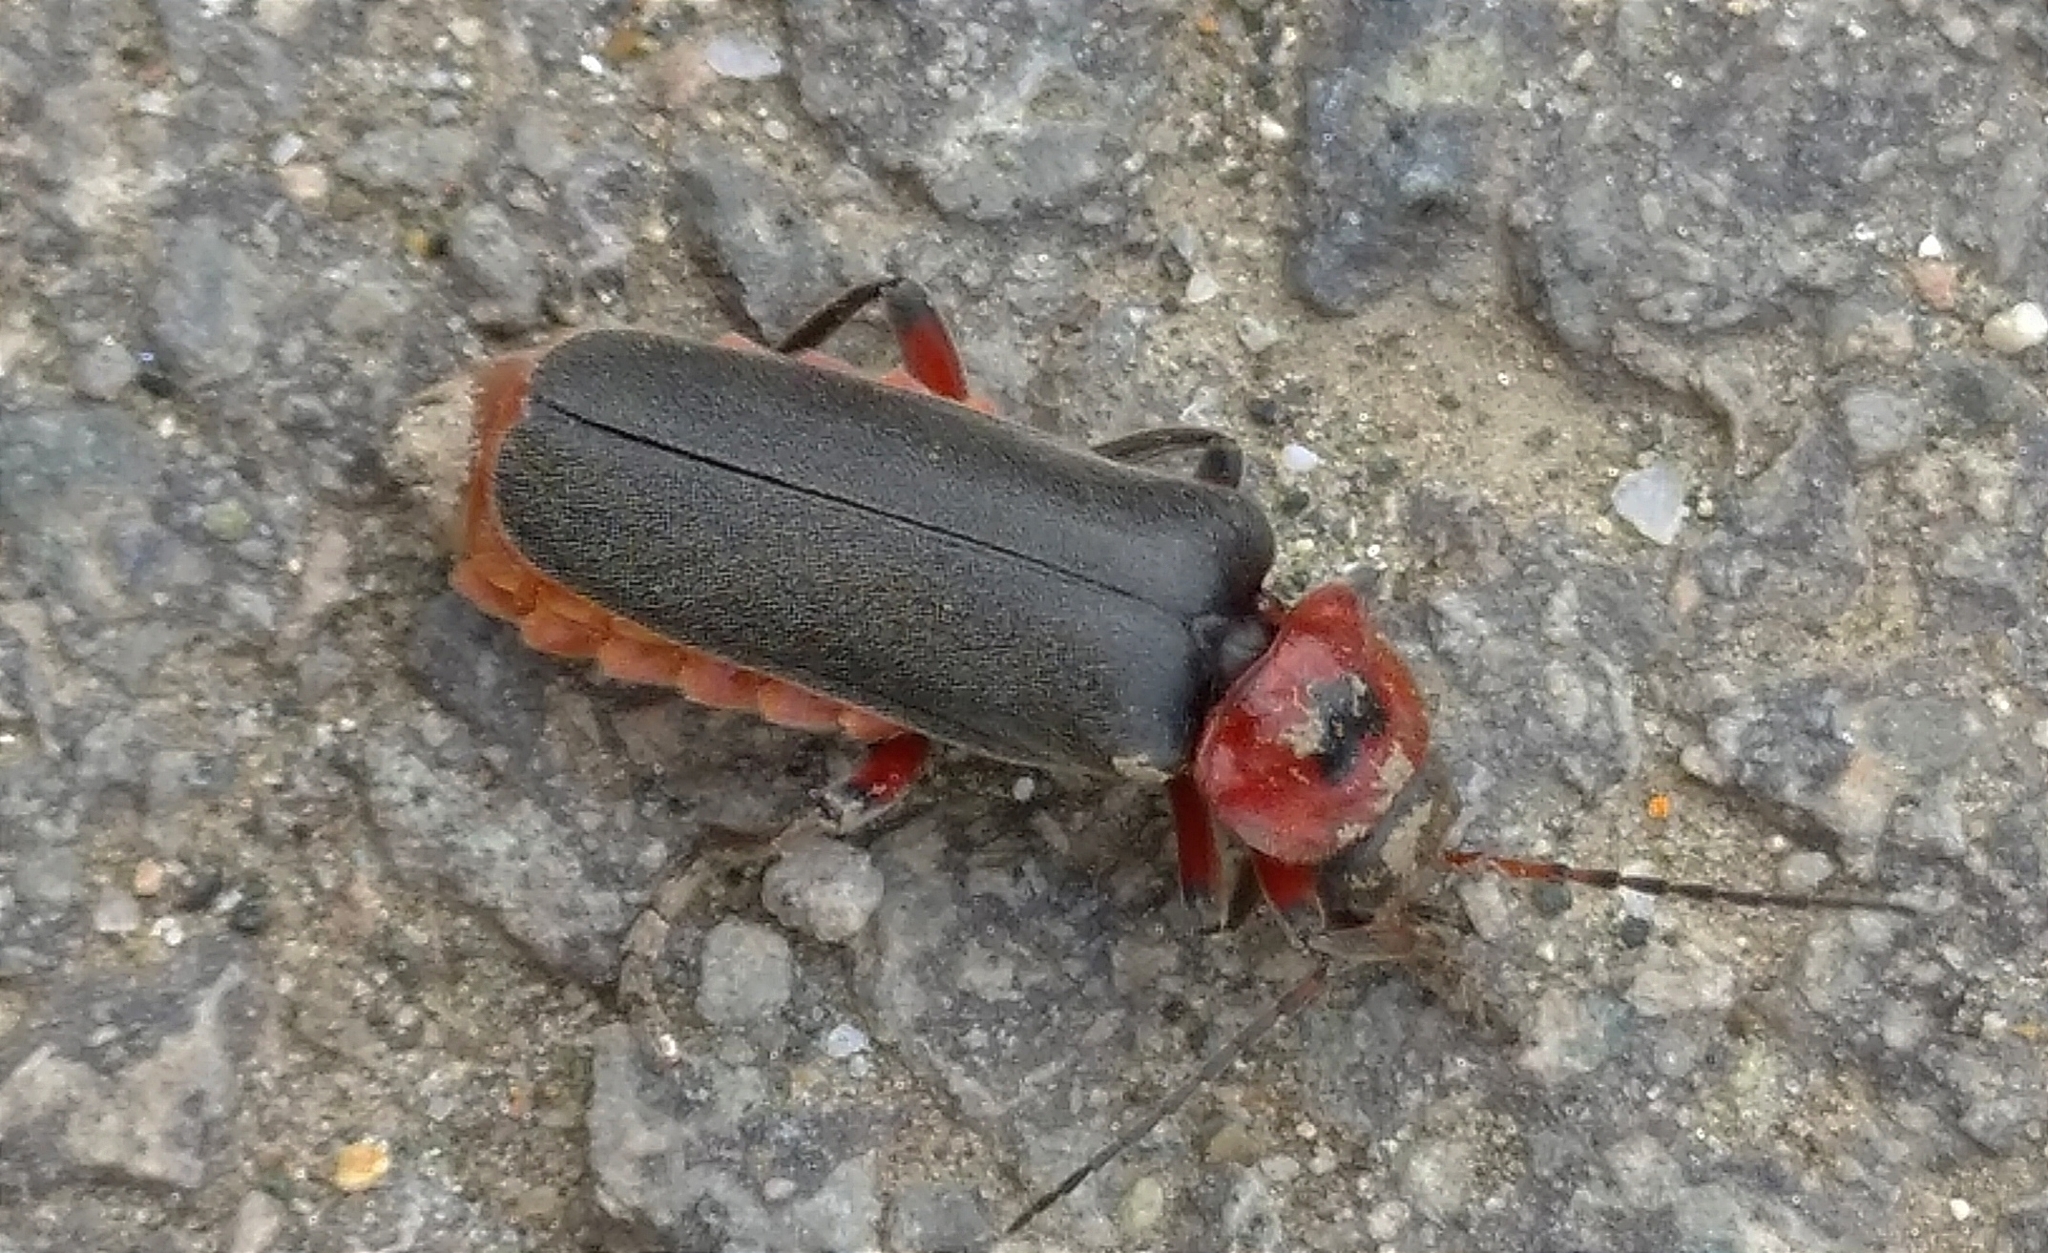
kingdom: Animalia
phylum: Arthropoda
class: Insecta
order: Coleoptera
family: Cantharidae
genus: Cantharis
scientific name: Cantharis rustica
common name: Soldier beetle
